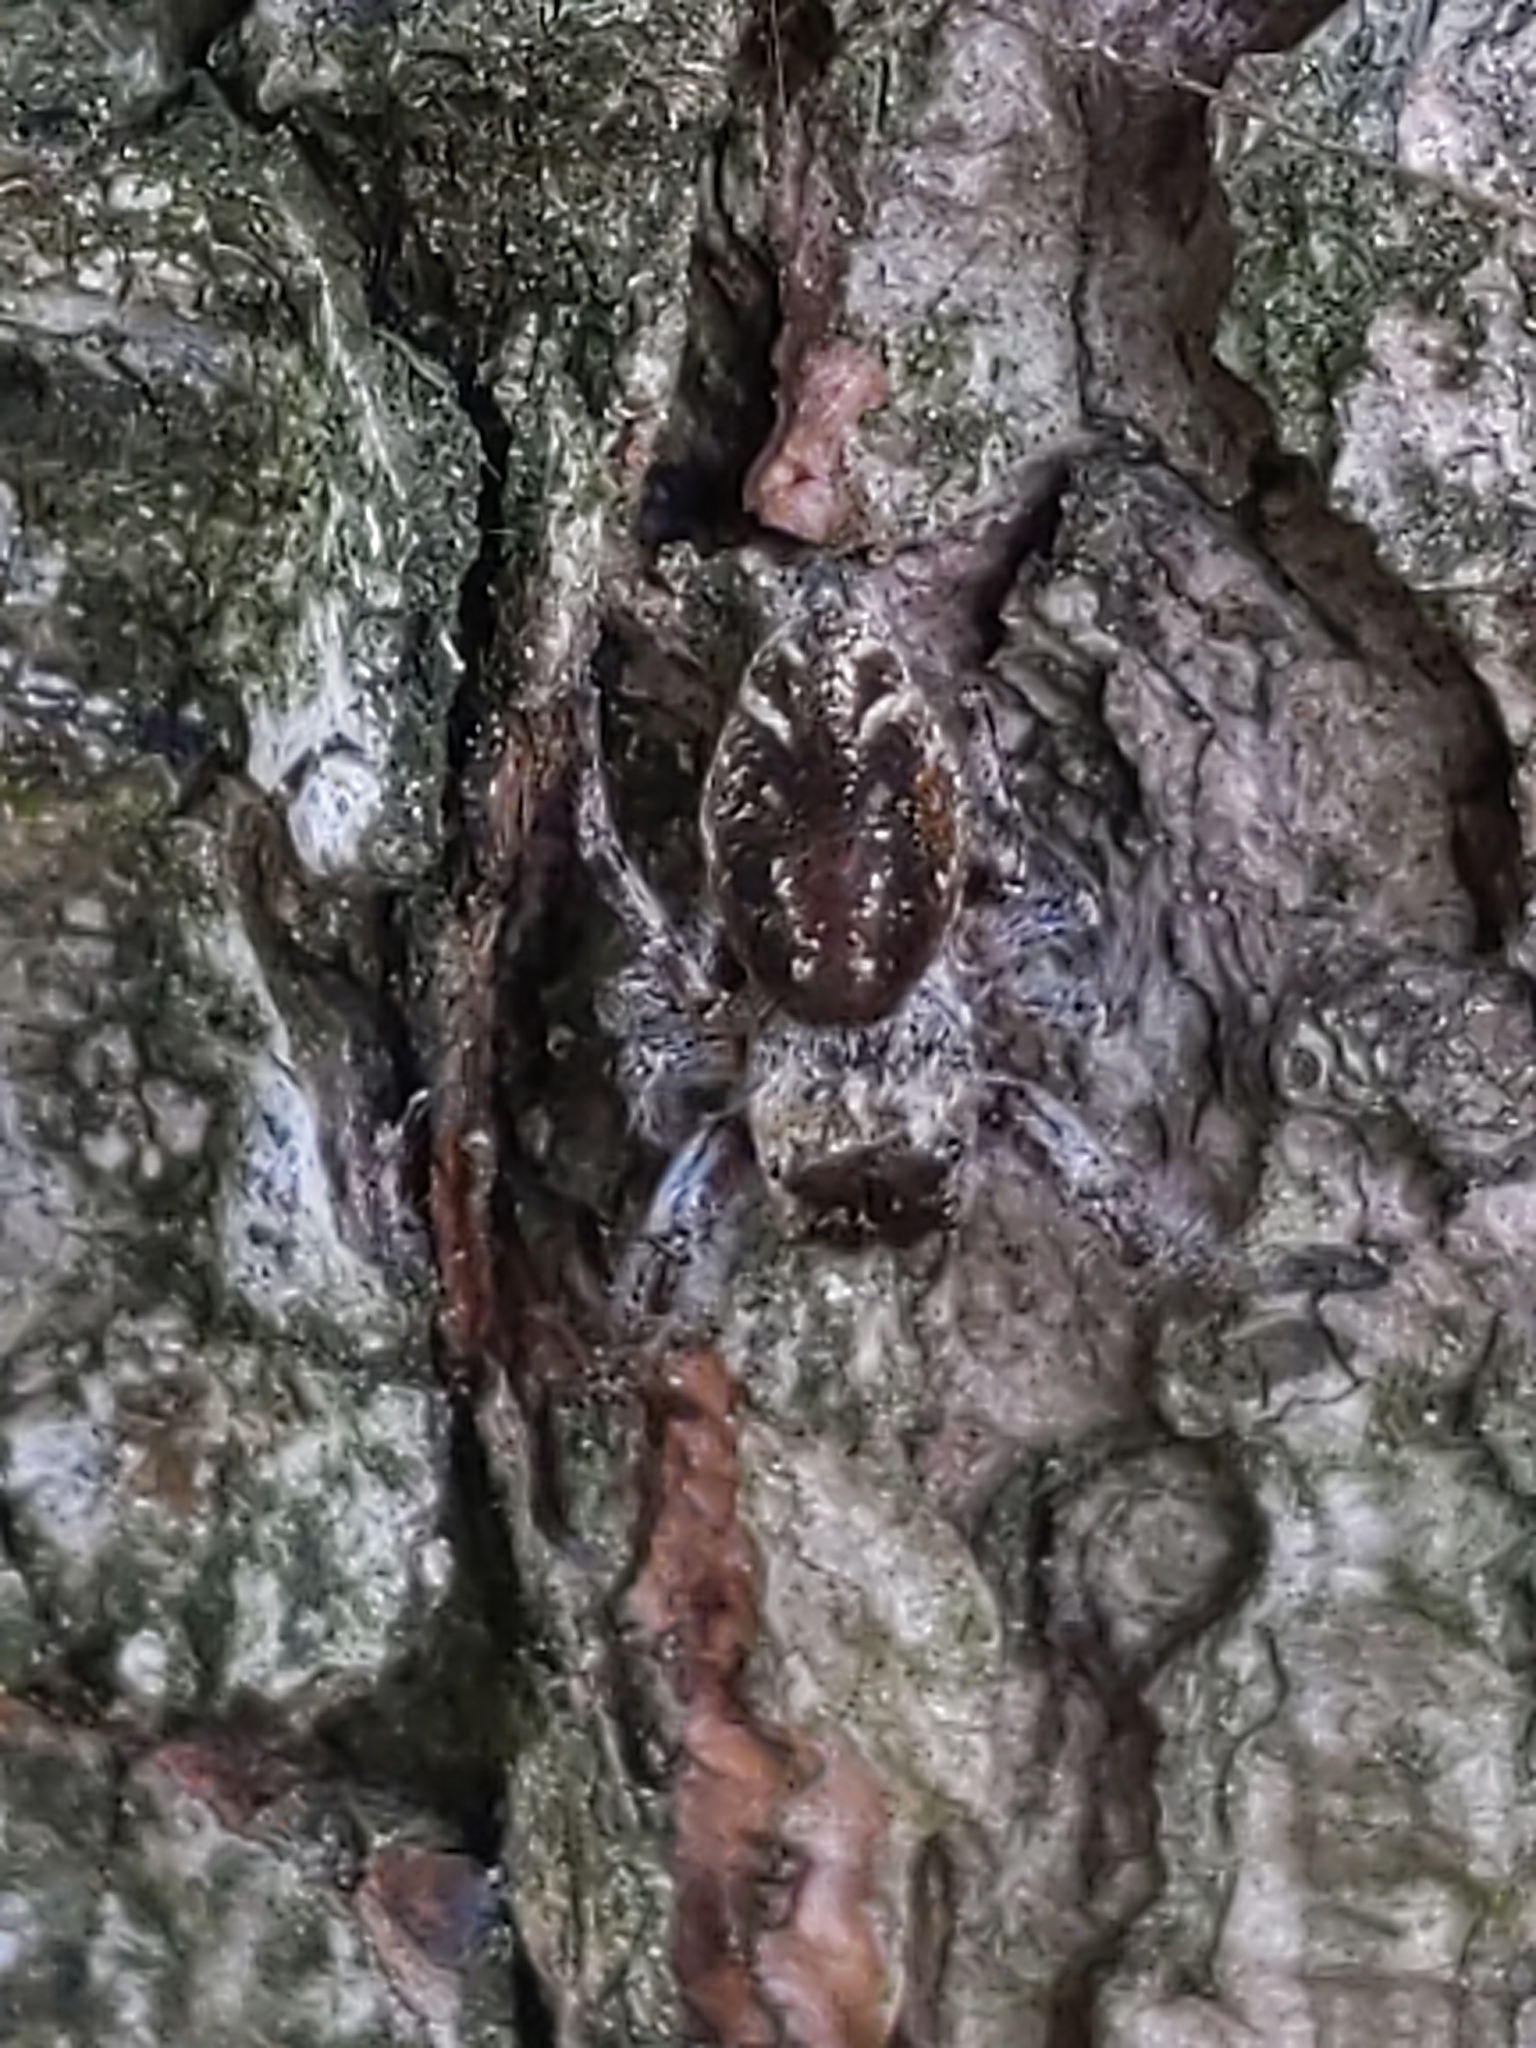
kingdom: Animalia
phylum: Arthropoda
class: Arachnida
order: Araneae
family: Salticidae
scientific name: Salticidae
